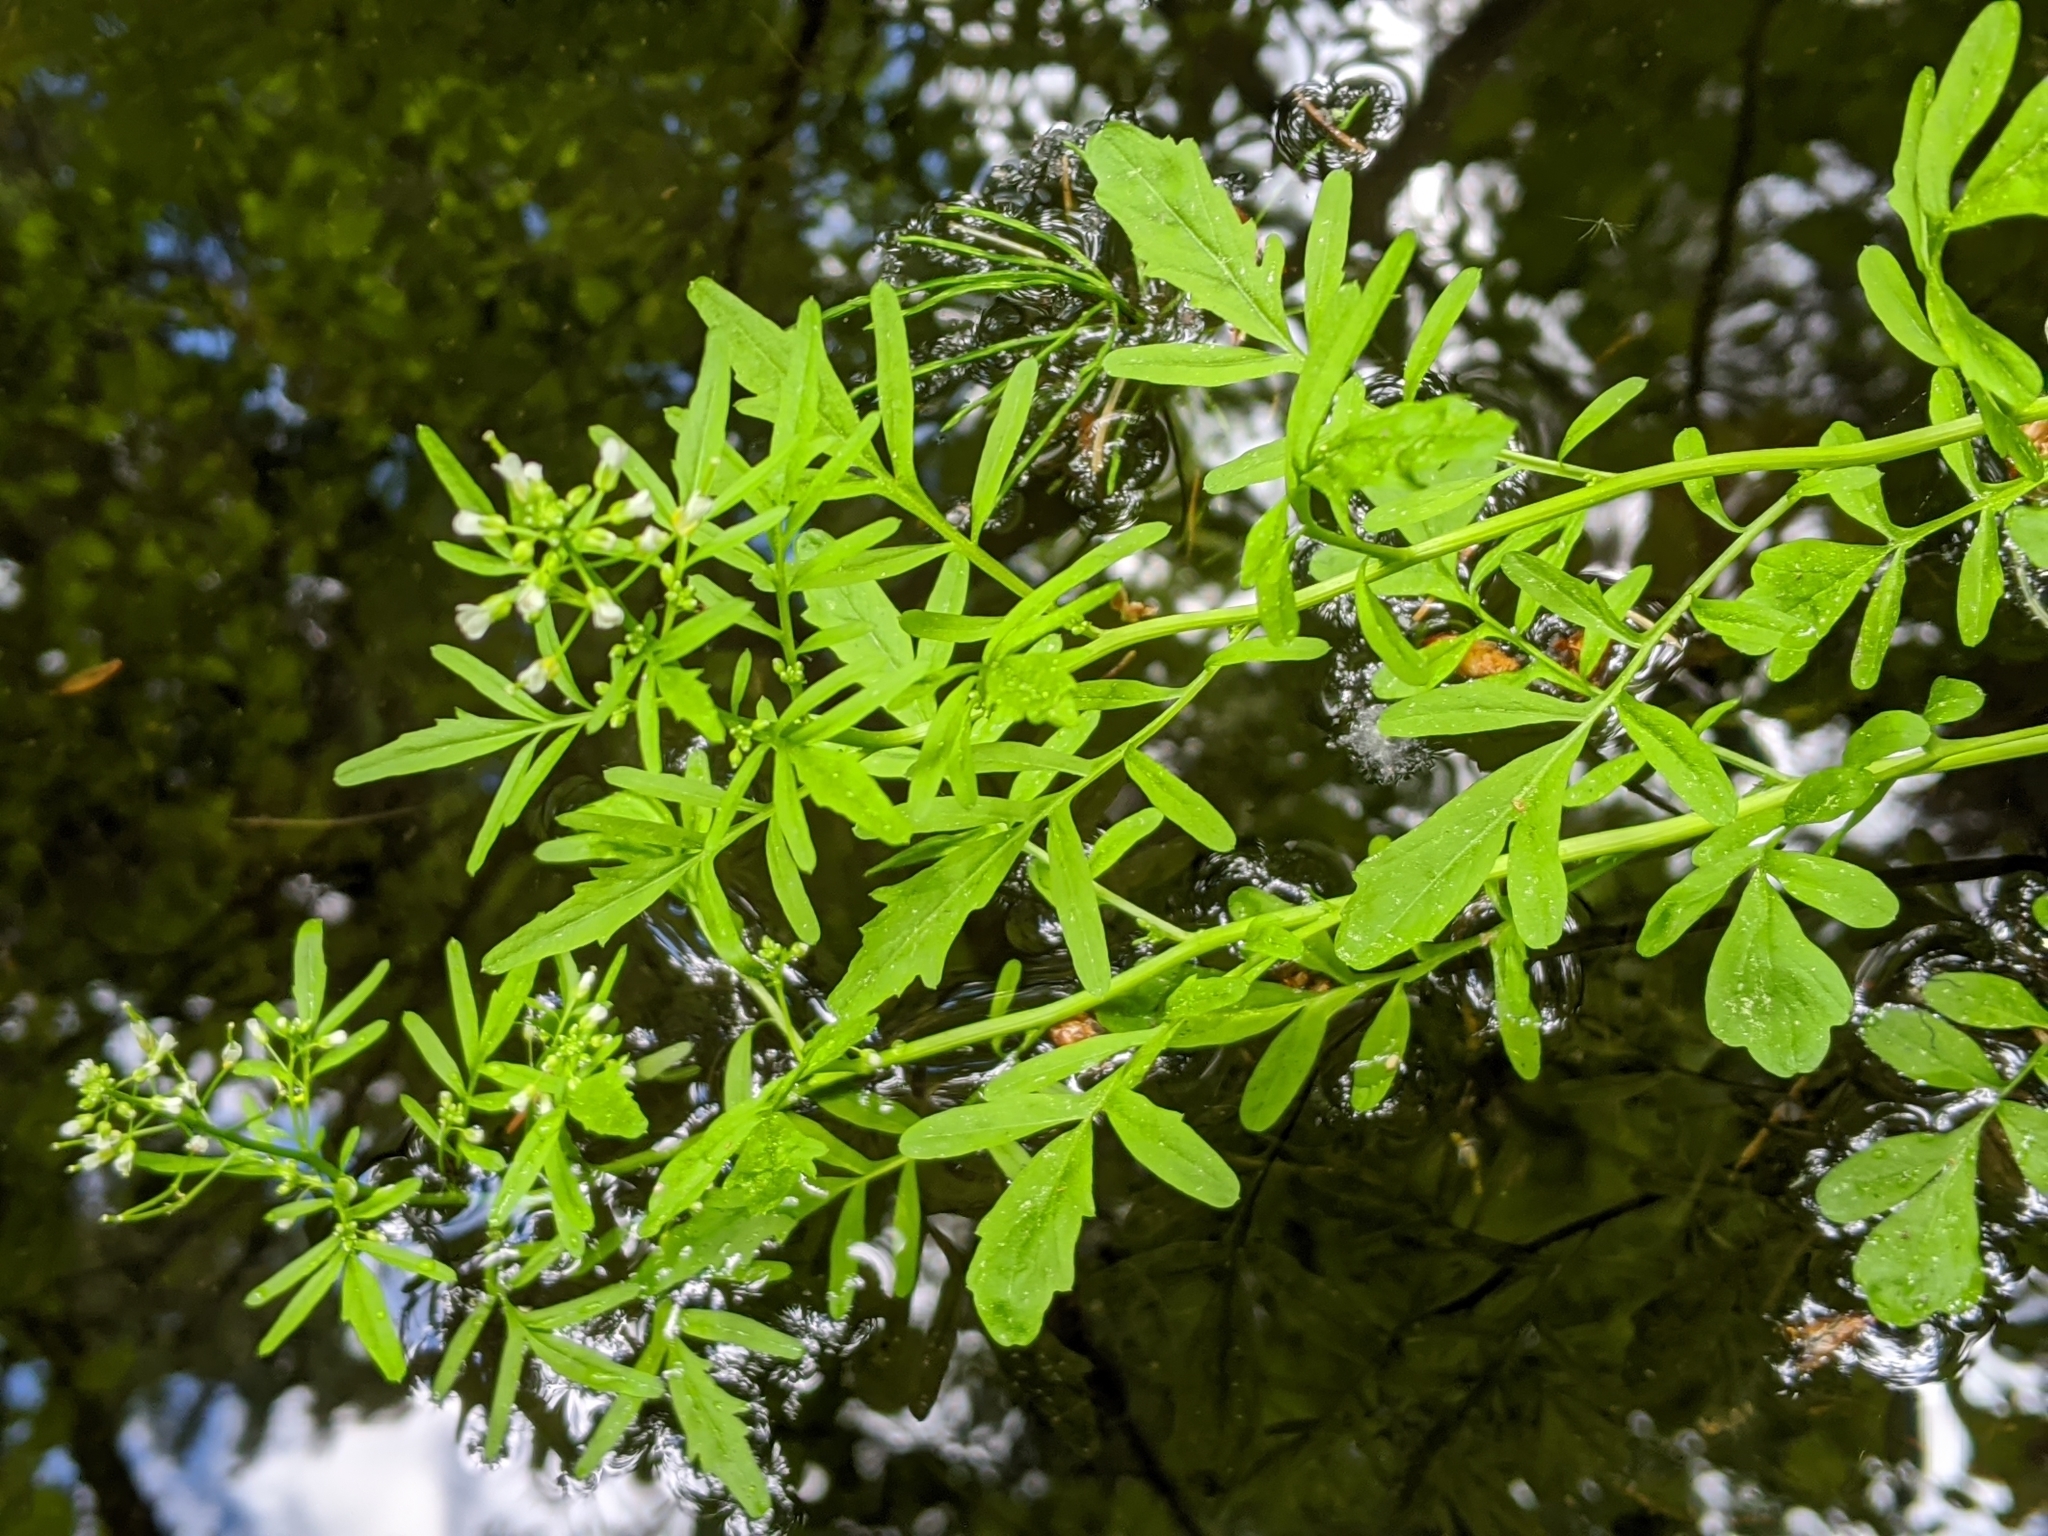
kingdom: Plantae
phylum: Tracheophyta
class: Magnoliopsida
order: Brassicales
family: Brassicaceae
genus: Cardamine
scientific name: Cardamine pensylvanica
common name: Pennsylvania bittercress
